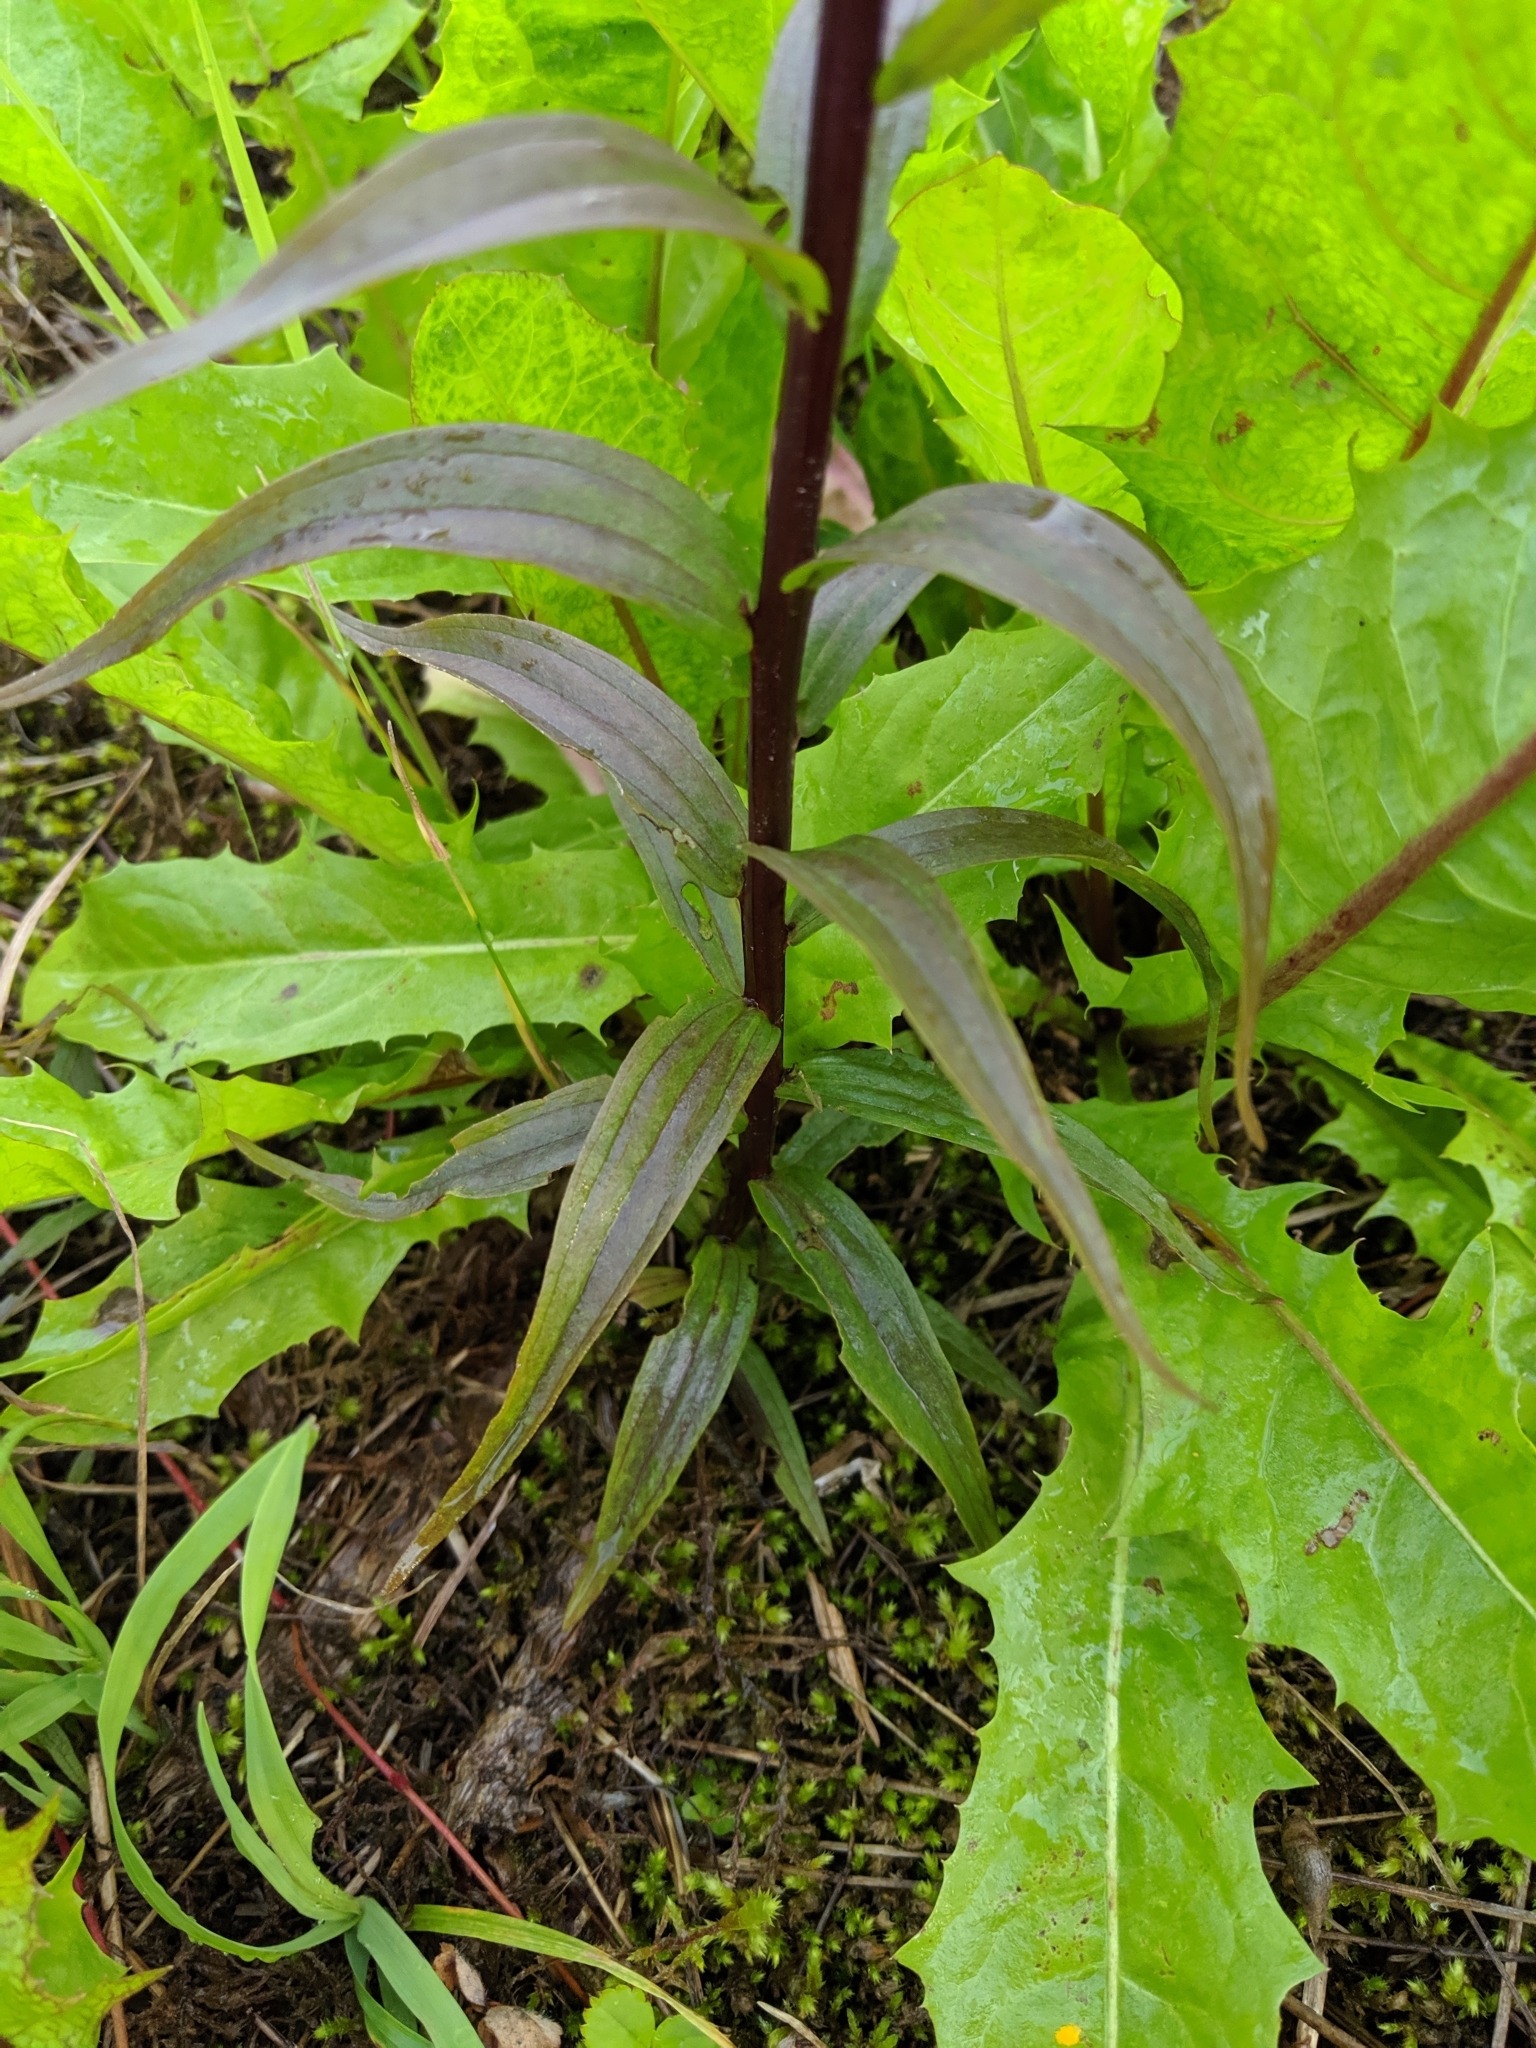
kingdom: Plantae
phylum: Tracheophyta
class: Magnoliopsida
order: Lamiales
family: Orobanchaceae
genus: Castilleja
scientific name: Castilleja miniata
